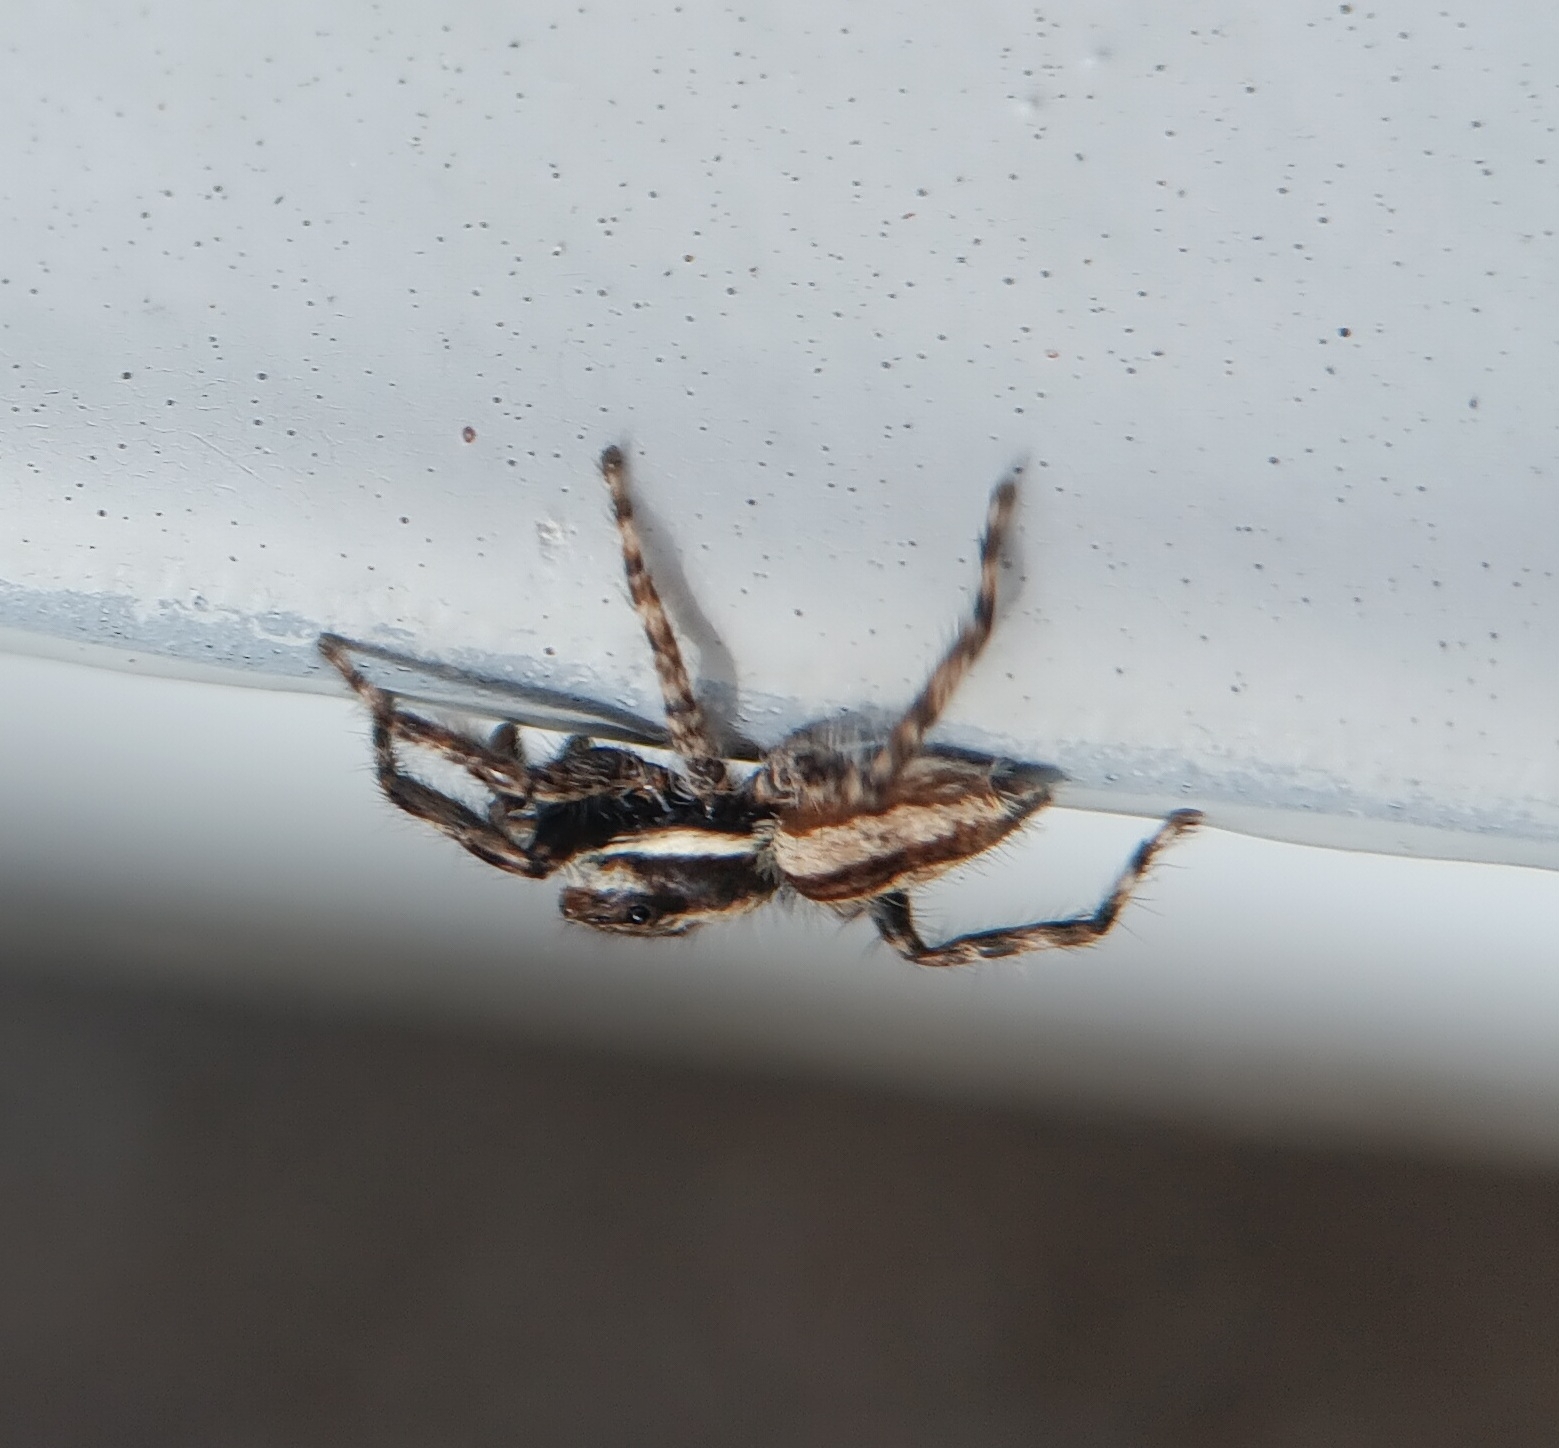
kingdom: Animalia
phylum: Arthropoda
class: Arachnida
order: Araneae
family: Salticidae
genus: Menemerus
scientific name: Menemerus bivittatus
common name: Gray wall jumper
